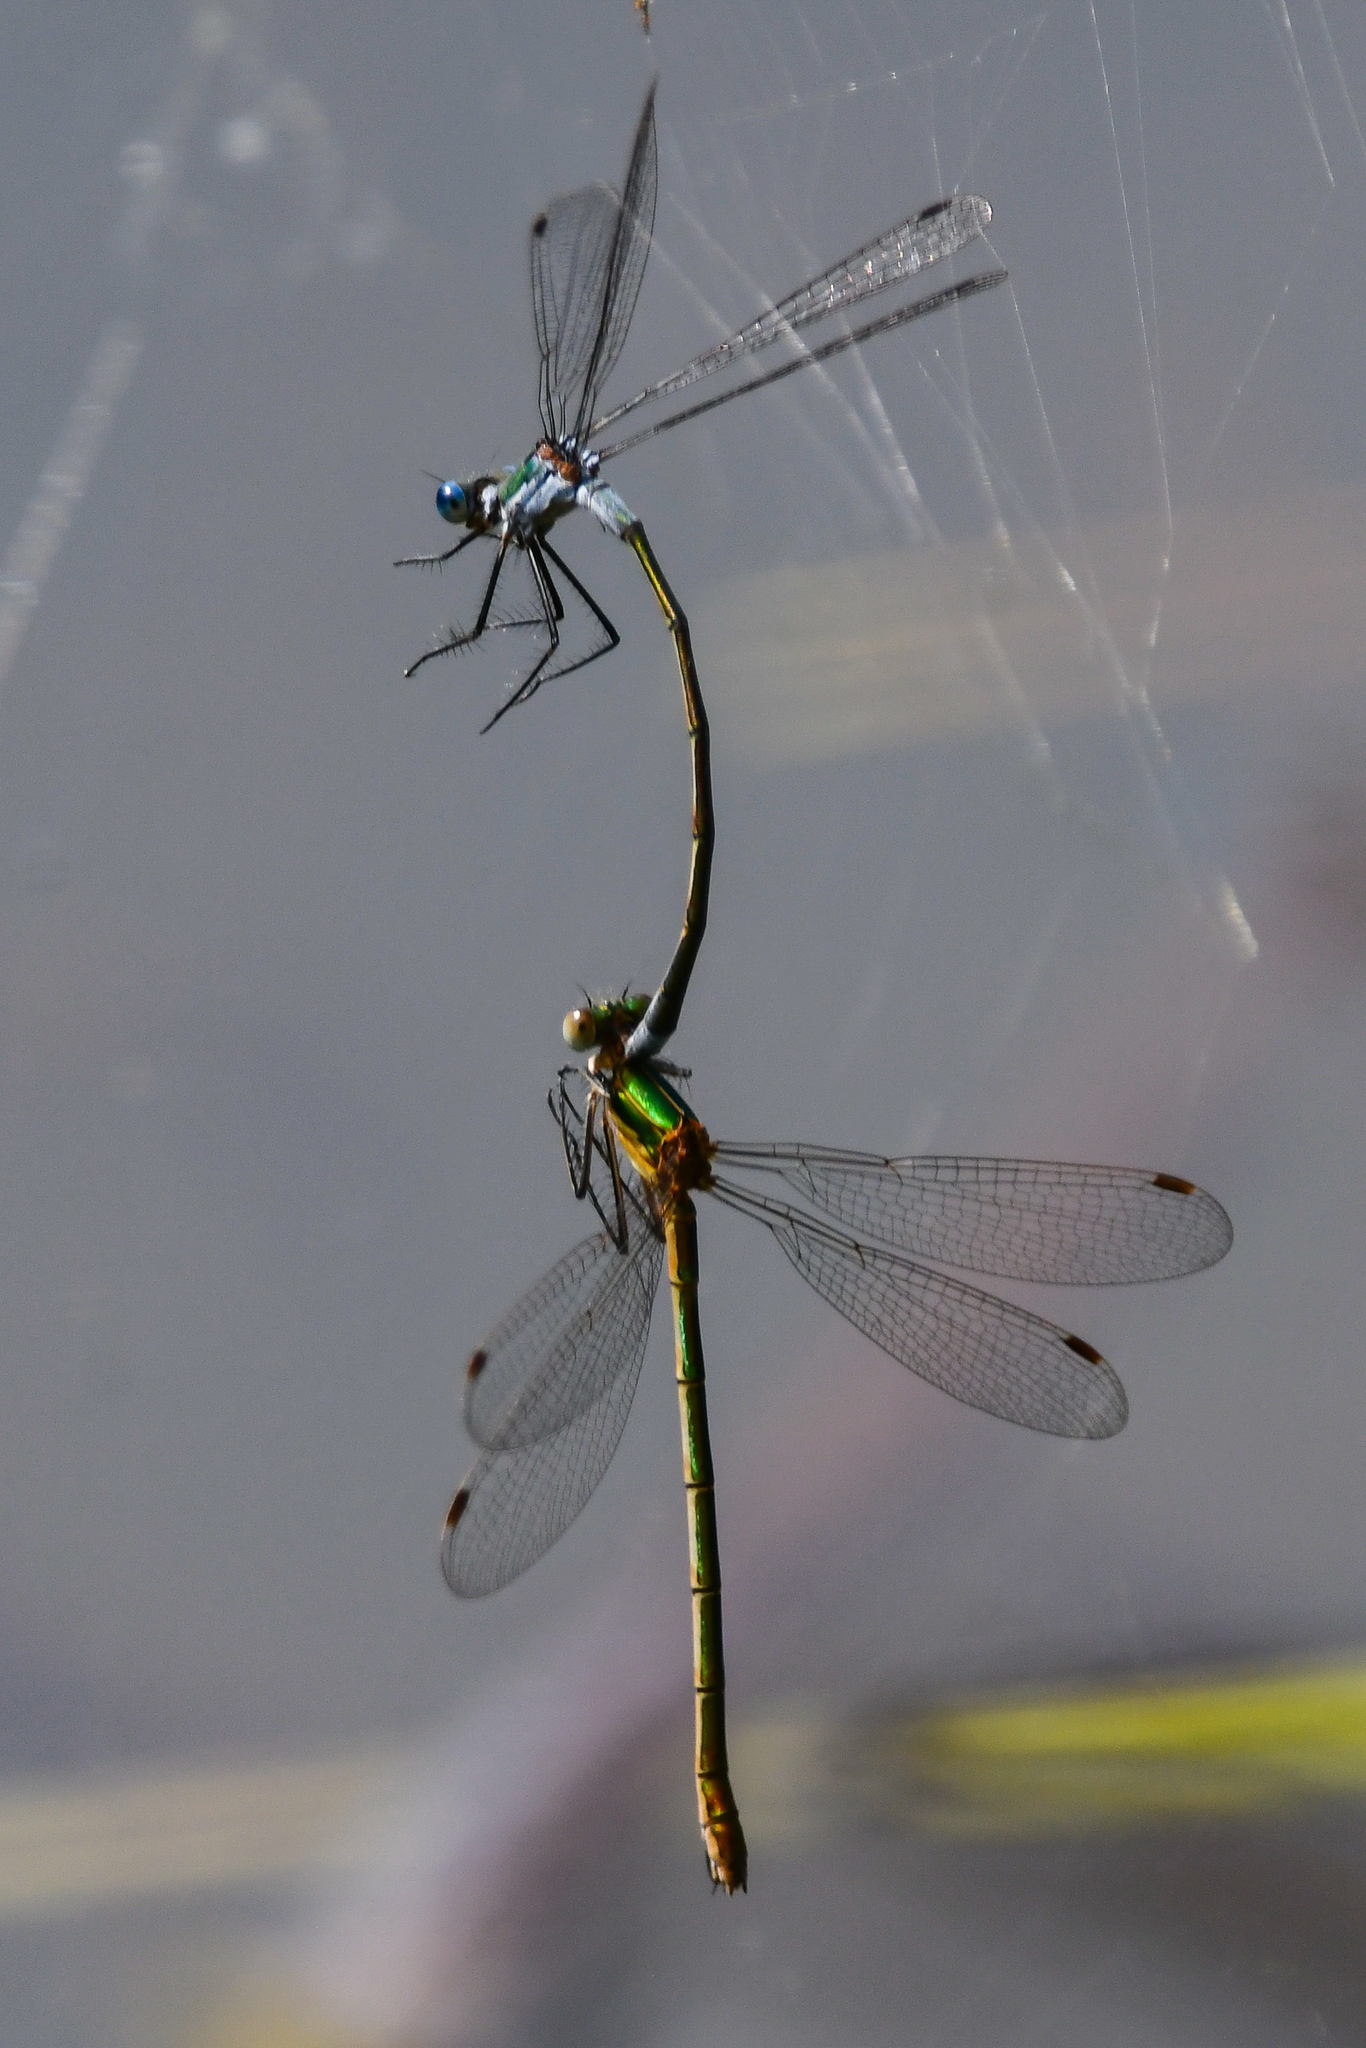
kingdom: Animalia
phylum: Arthropoda
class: Insecta
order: Odonata
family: Lestidae
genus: Lestes
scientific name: Lestes sponsa
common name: Common spreadwing
